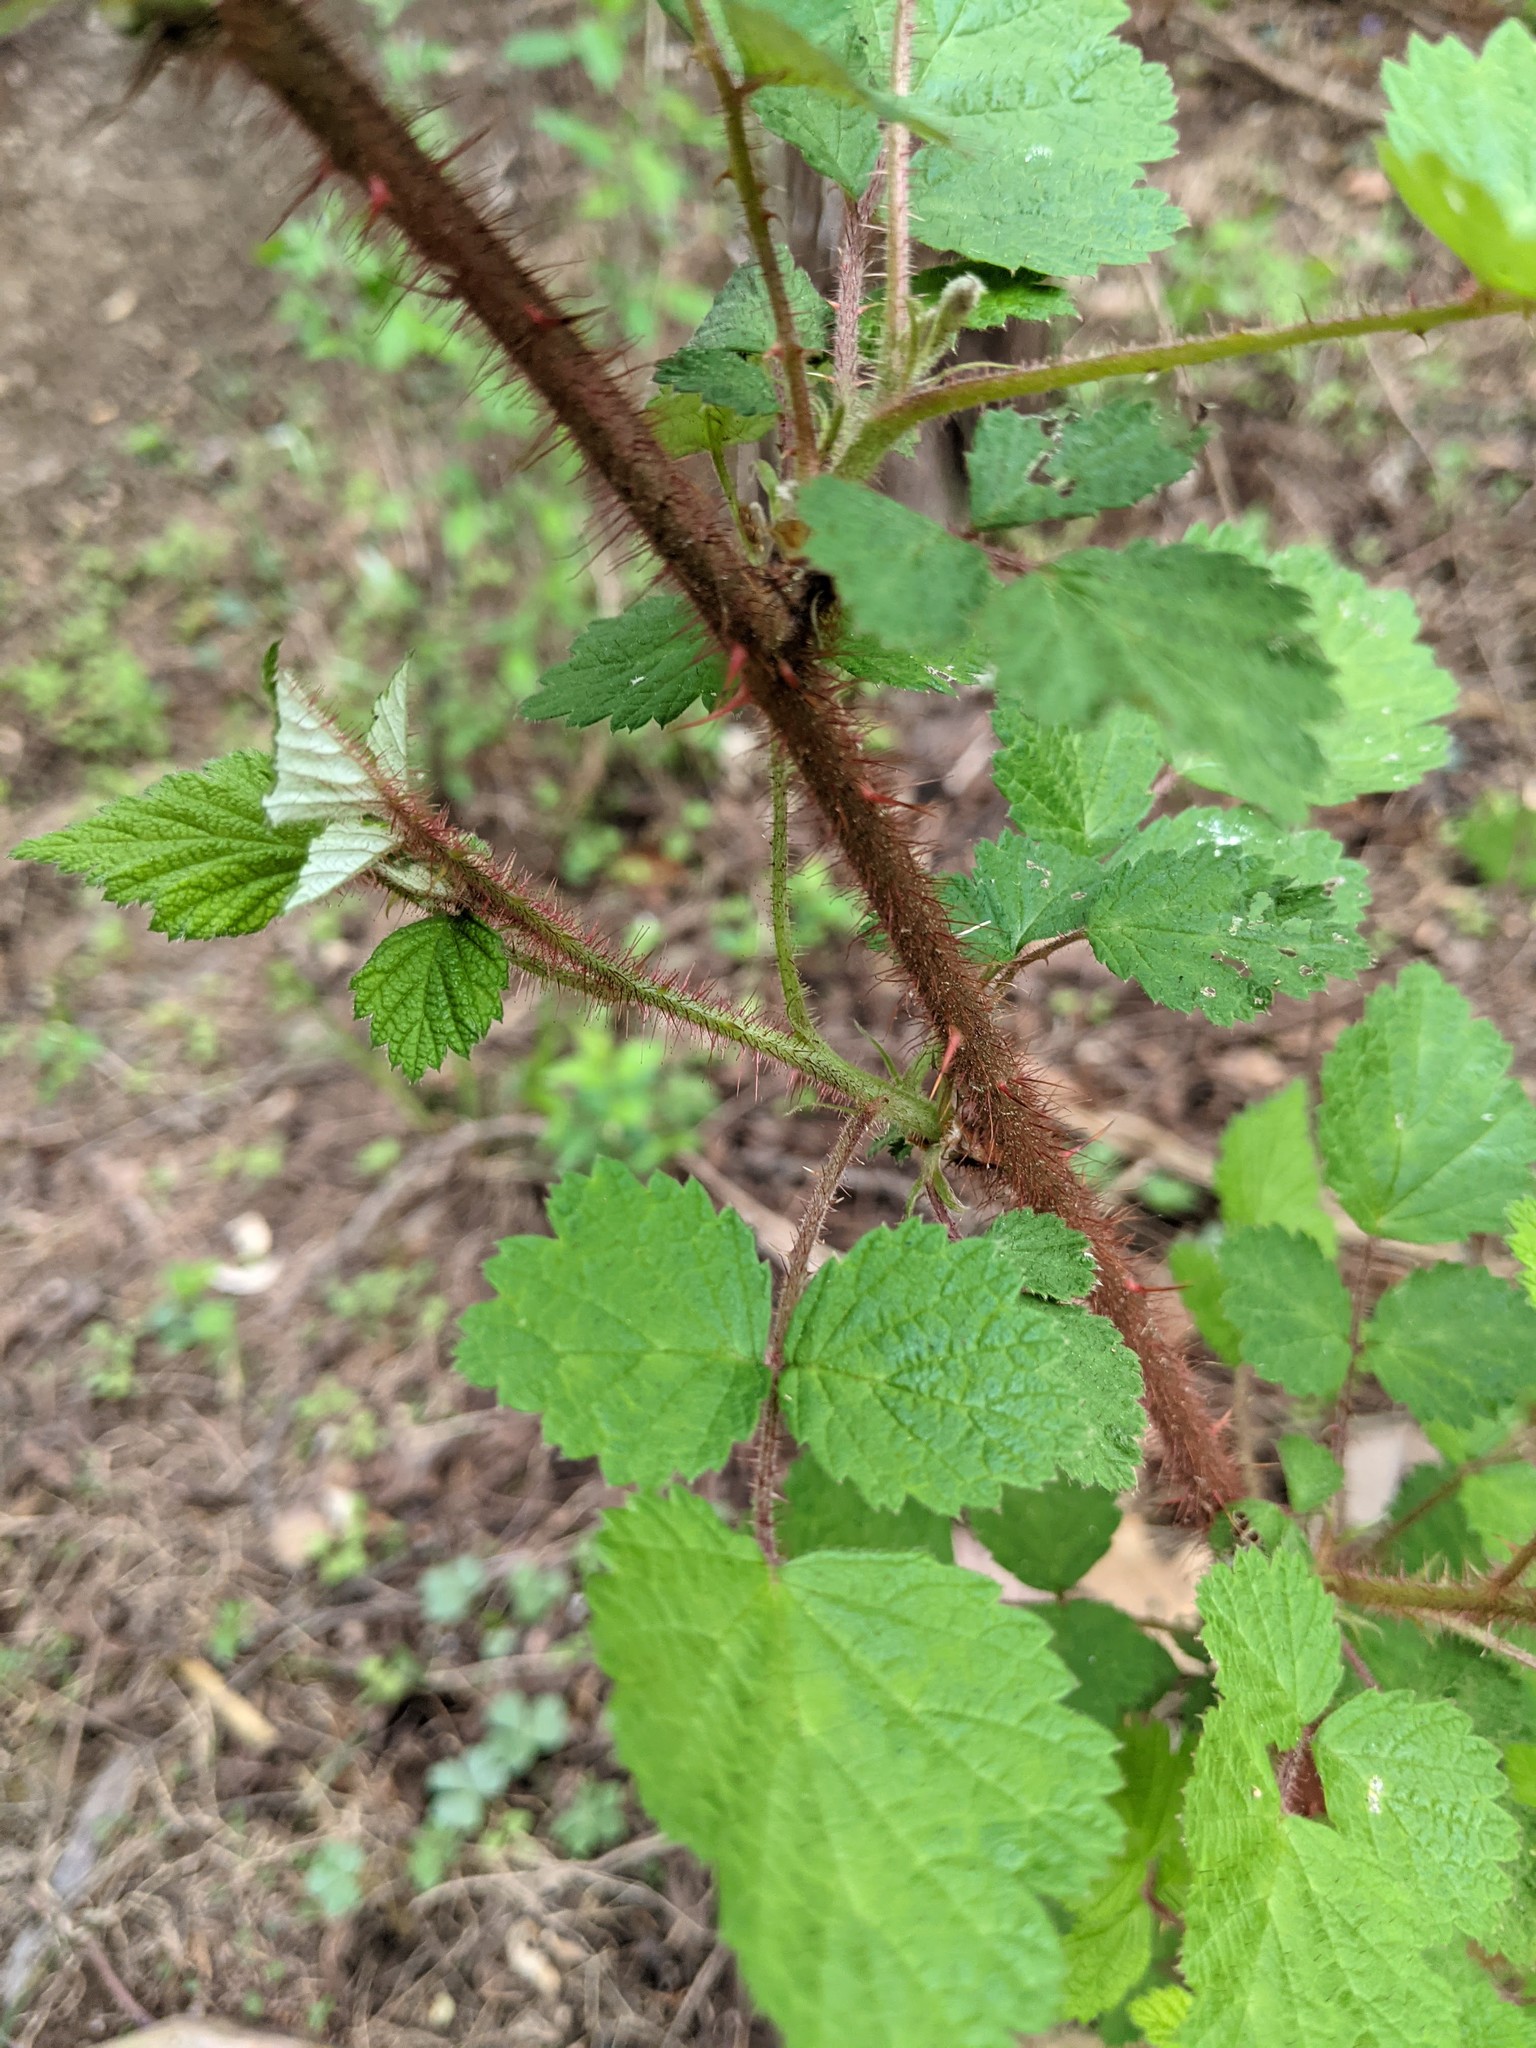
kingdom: Plantae
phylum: Tracheophyta
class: Magnoliopsida
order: Rosales
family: Rosaceae
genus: Rubus
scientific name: Rubus phoenicolasius
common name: Japanese wineberry
